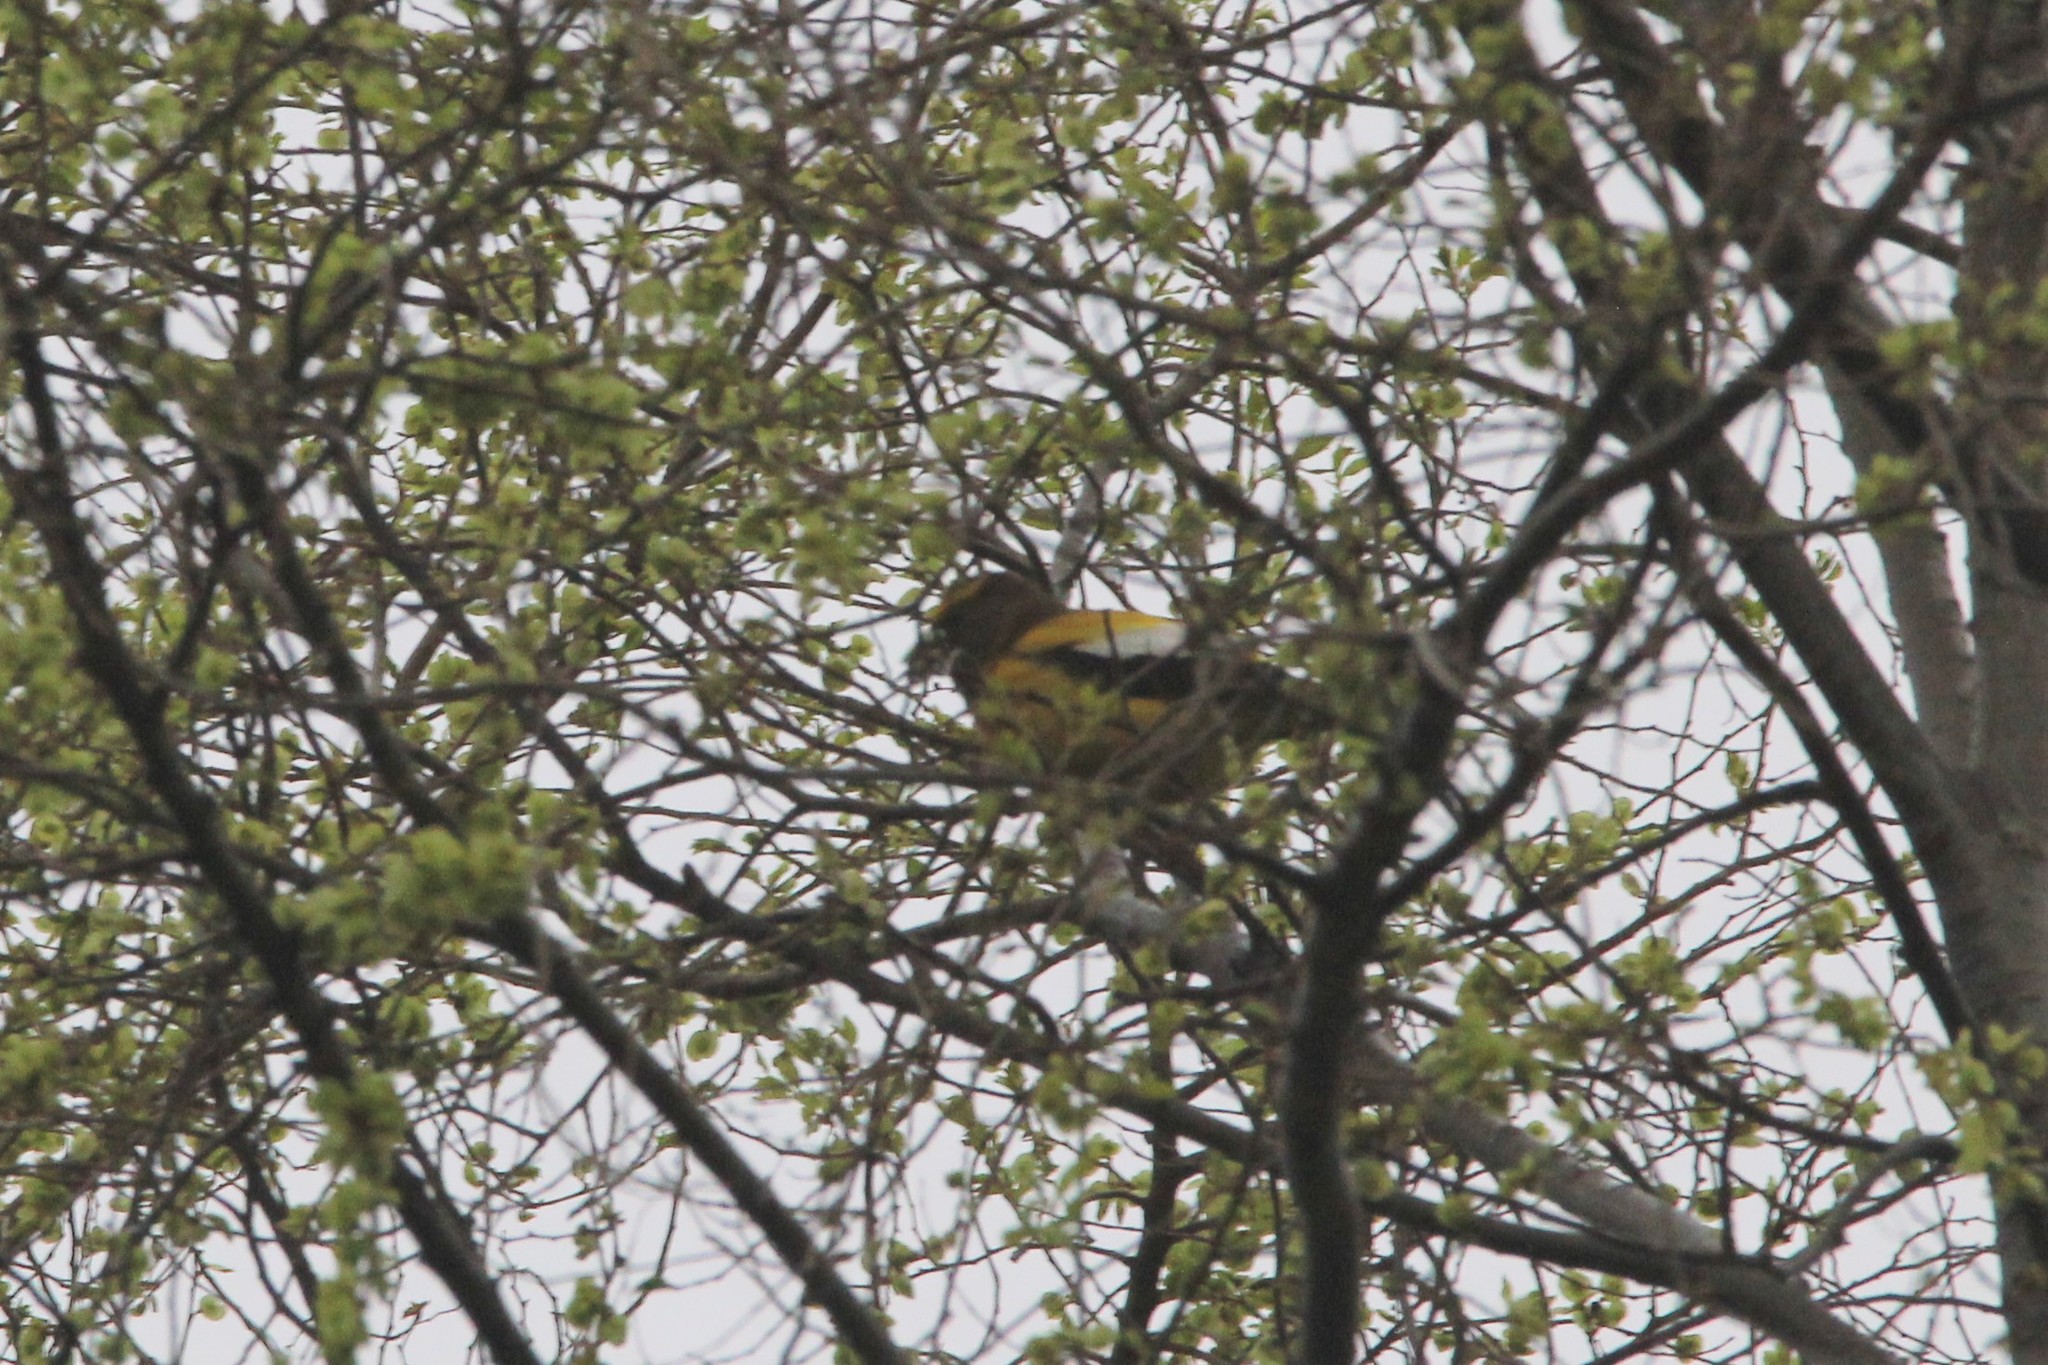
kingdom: Animalia
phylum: Chordata
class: Aves
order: Passeriformes
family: Fringillidae
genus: Hesperiphona
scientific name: Hesperiphona vespertina
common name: Evening grosbeak
